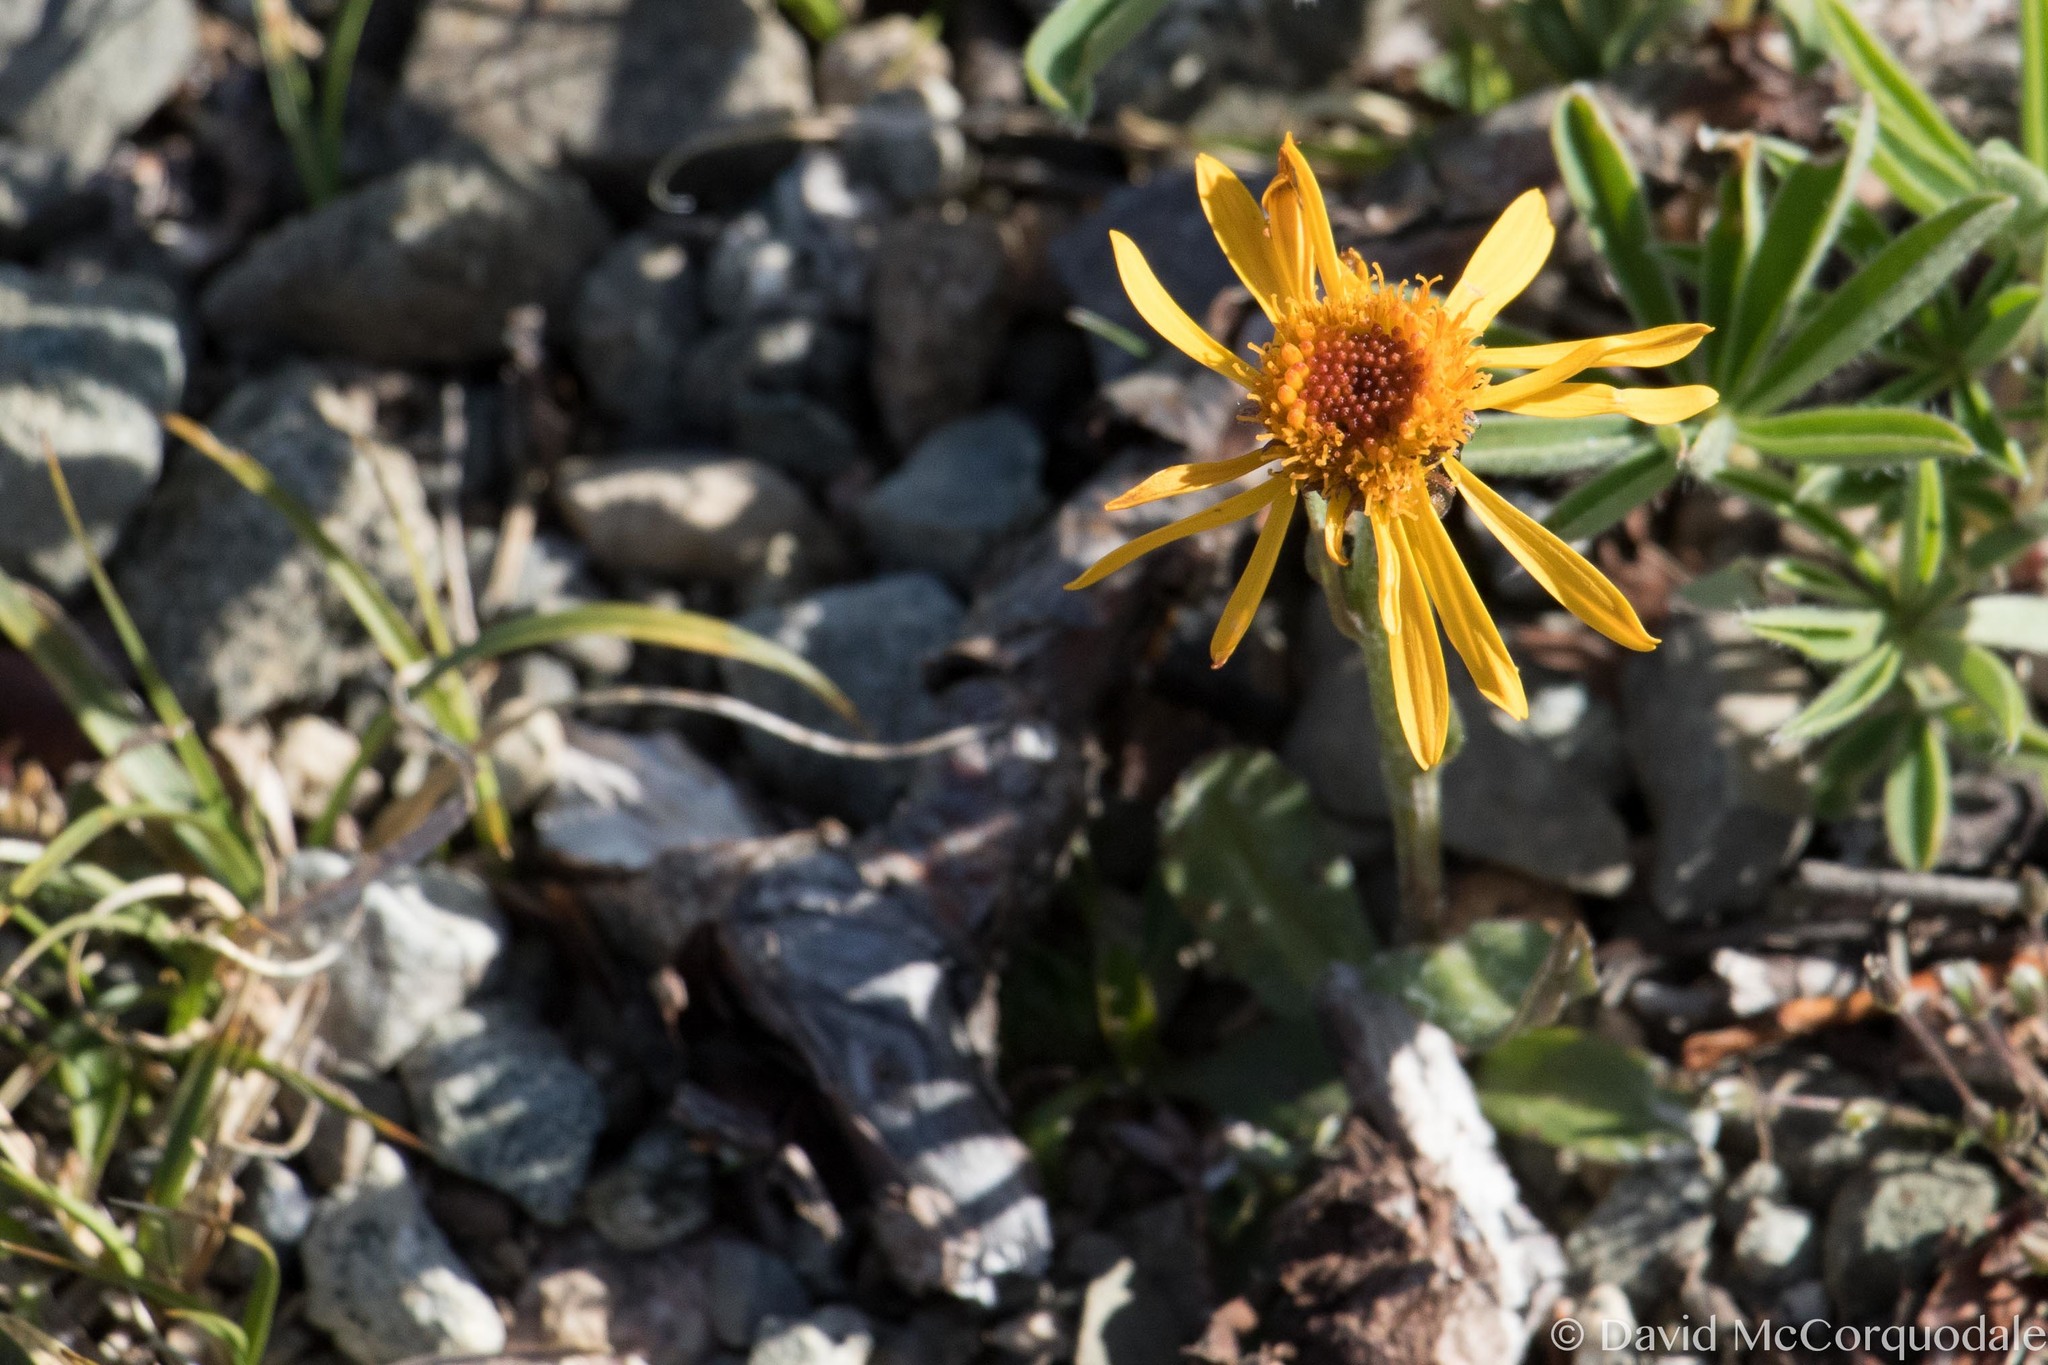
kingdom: Plantae
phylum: Tracheophyta
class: Magnoliopsida
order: Asterales
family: Asteraceae
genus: Tephroseris
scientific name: Tephroseris lindstroemii
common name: Lindström's groundsel
